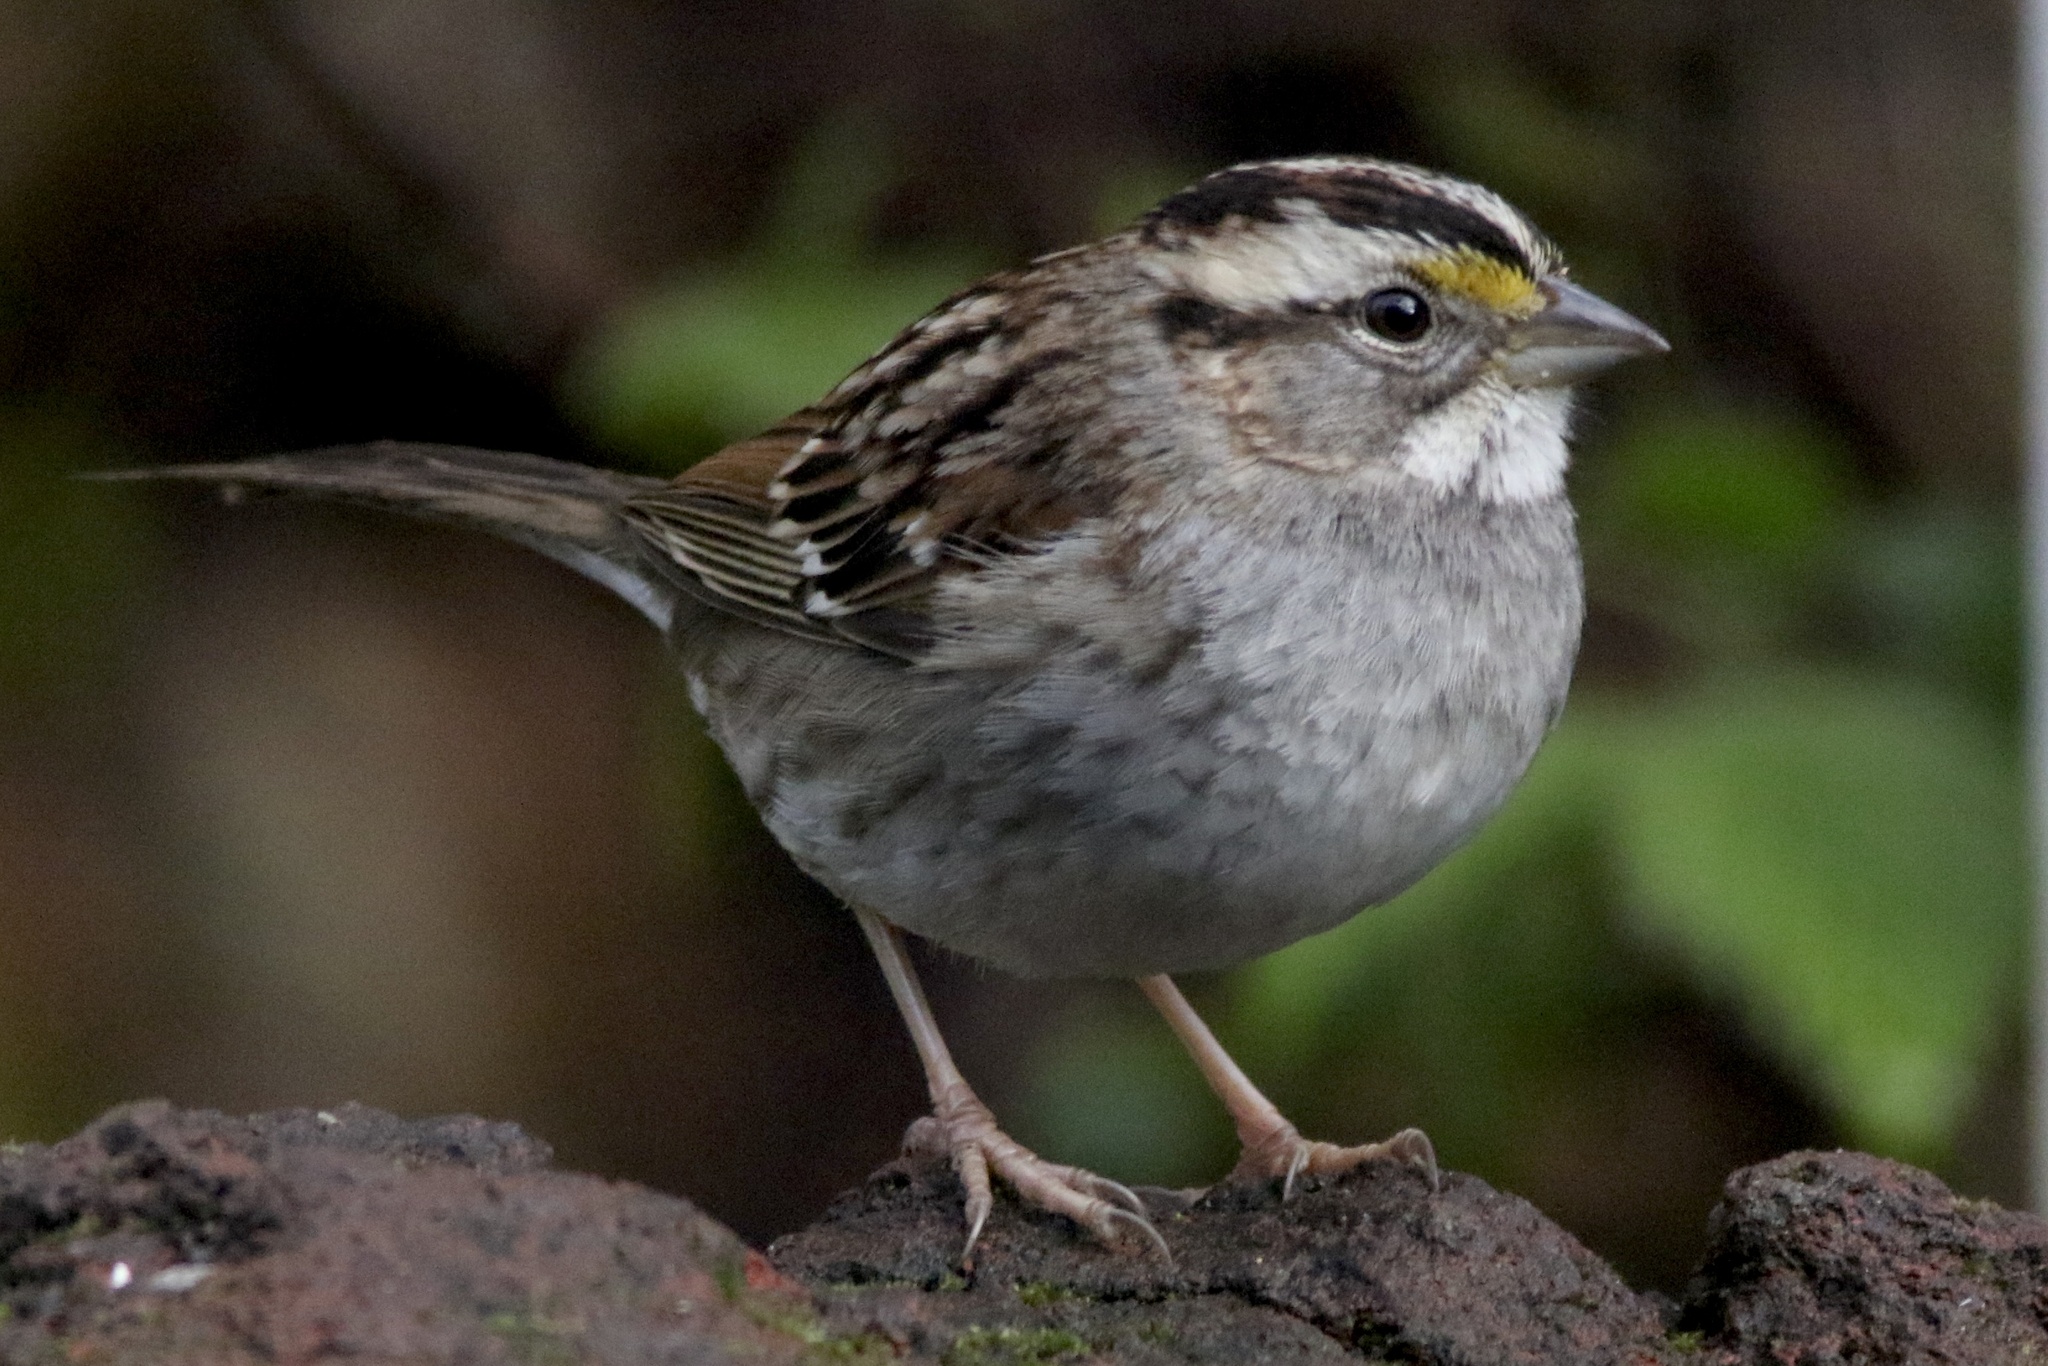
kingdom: Animalia
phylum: Chordata
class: Aves
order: Passeriformes
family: Passerellidae
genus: Zonotrichia
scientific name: Zonotrichia albicollis
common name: White-throated sparrow
